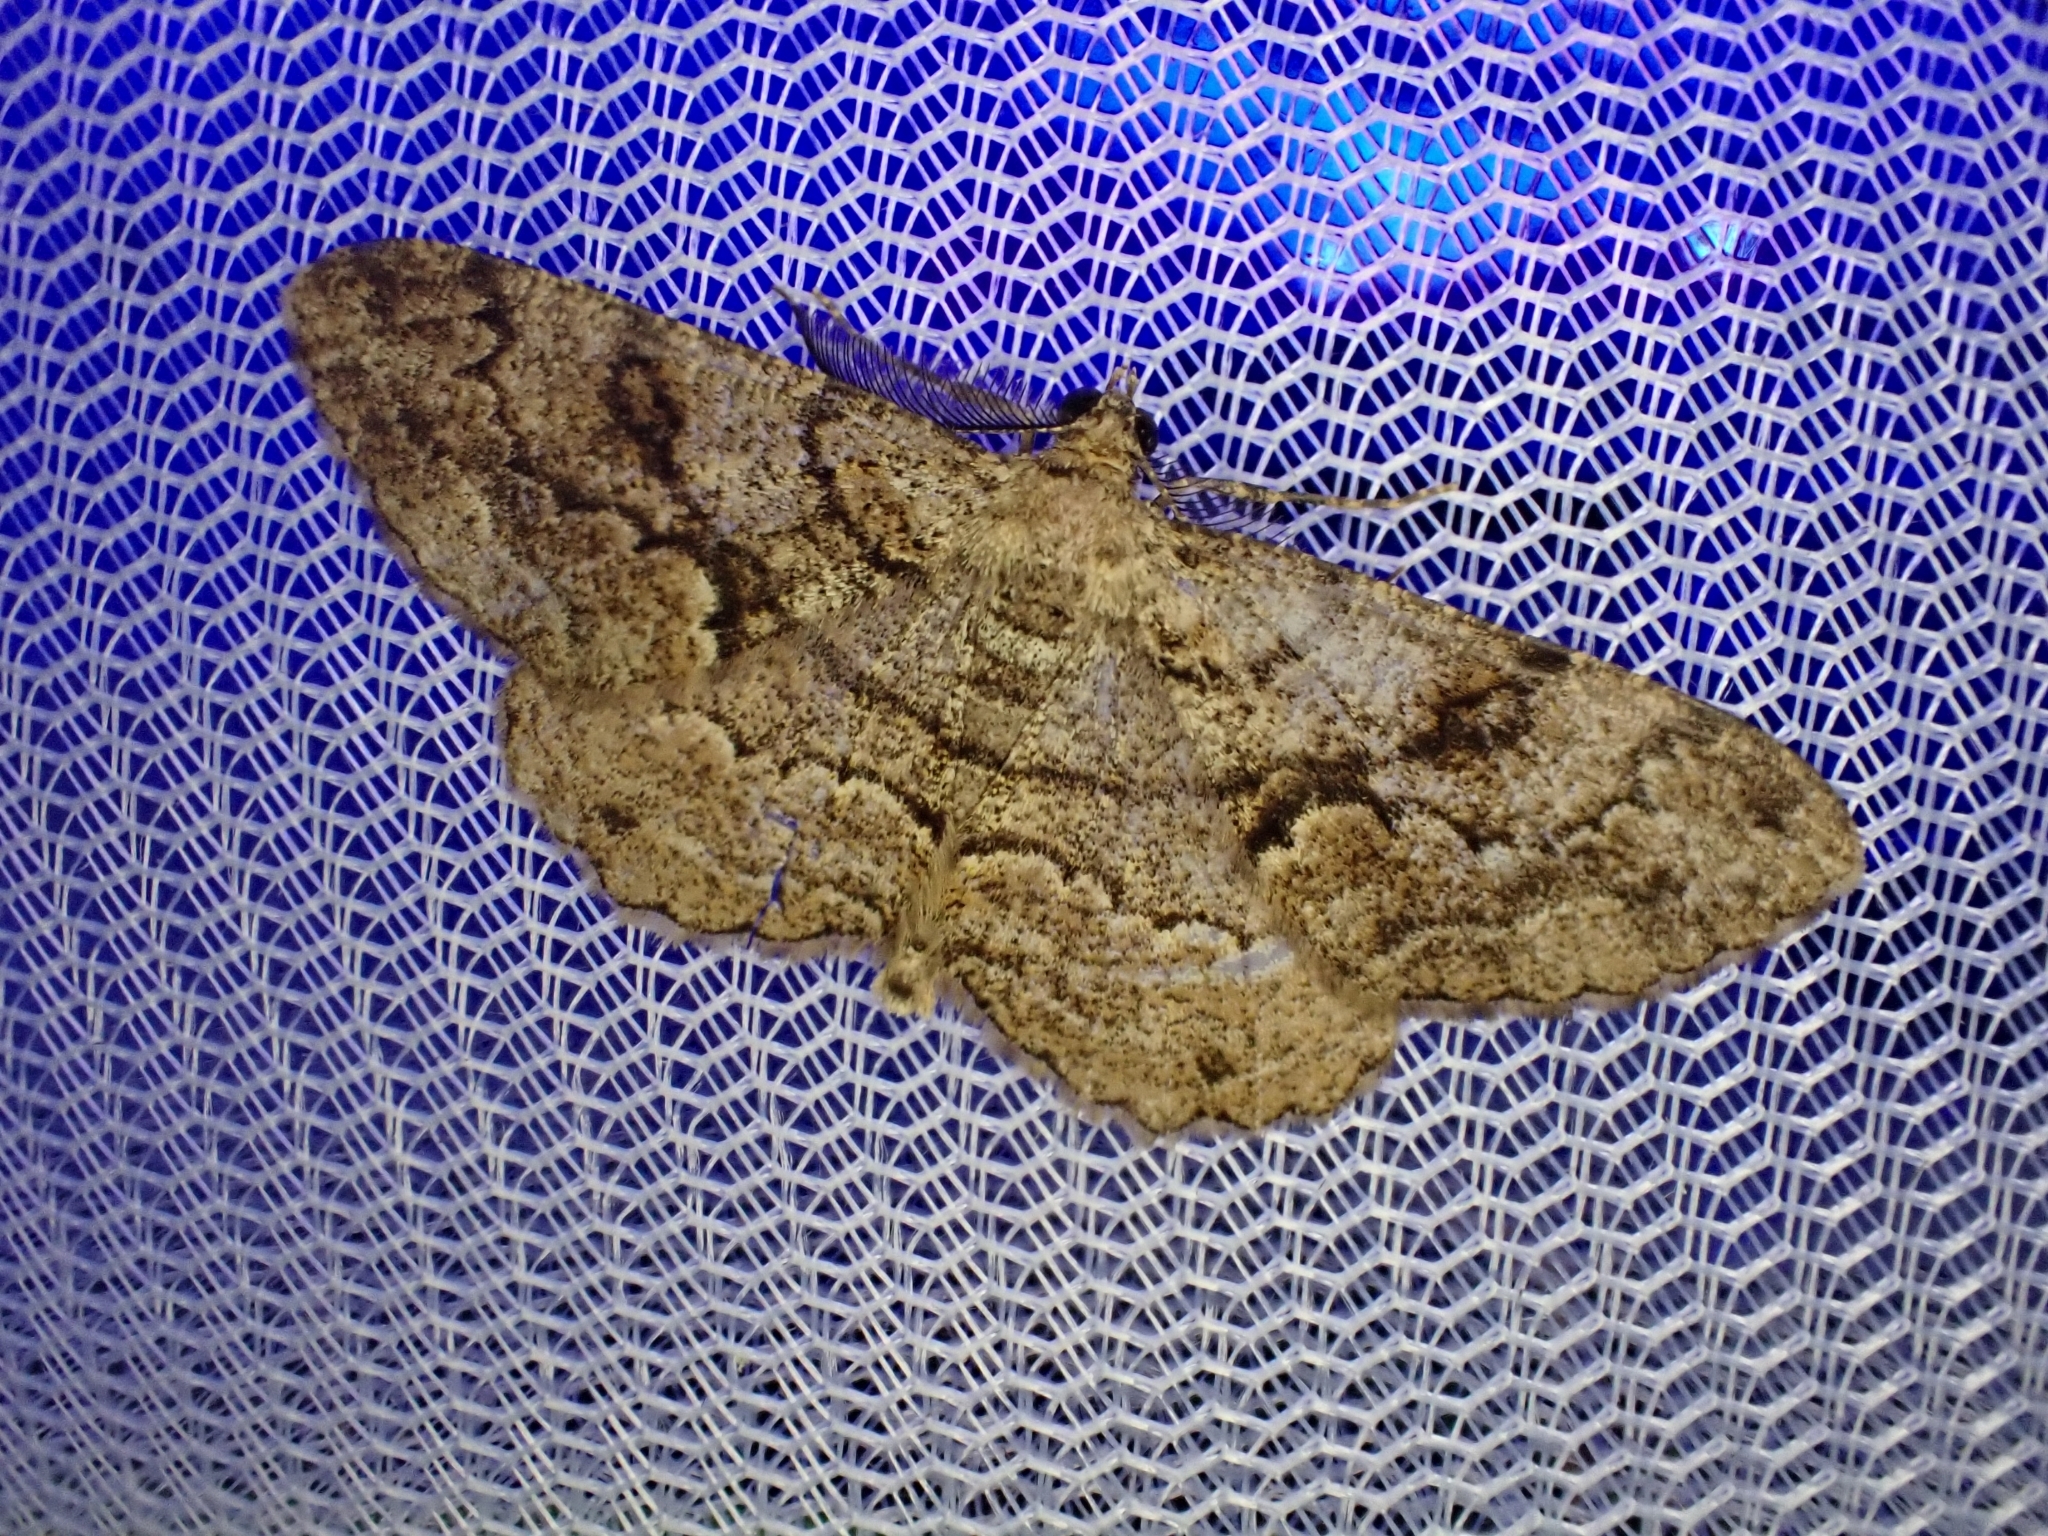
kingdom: Animalia
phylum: Arthropoda
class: Insecta
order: Lepidoptera
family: Geometridae
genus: Peribatodes
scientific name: Peribatodes secundaria
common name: Feathered beauty
